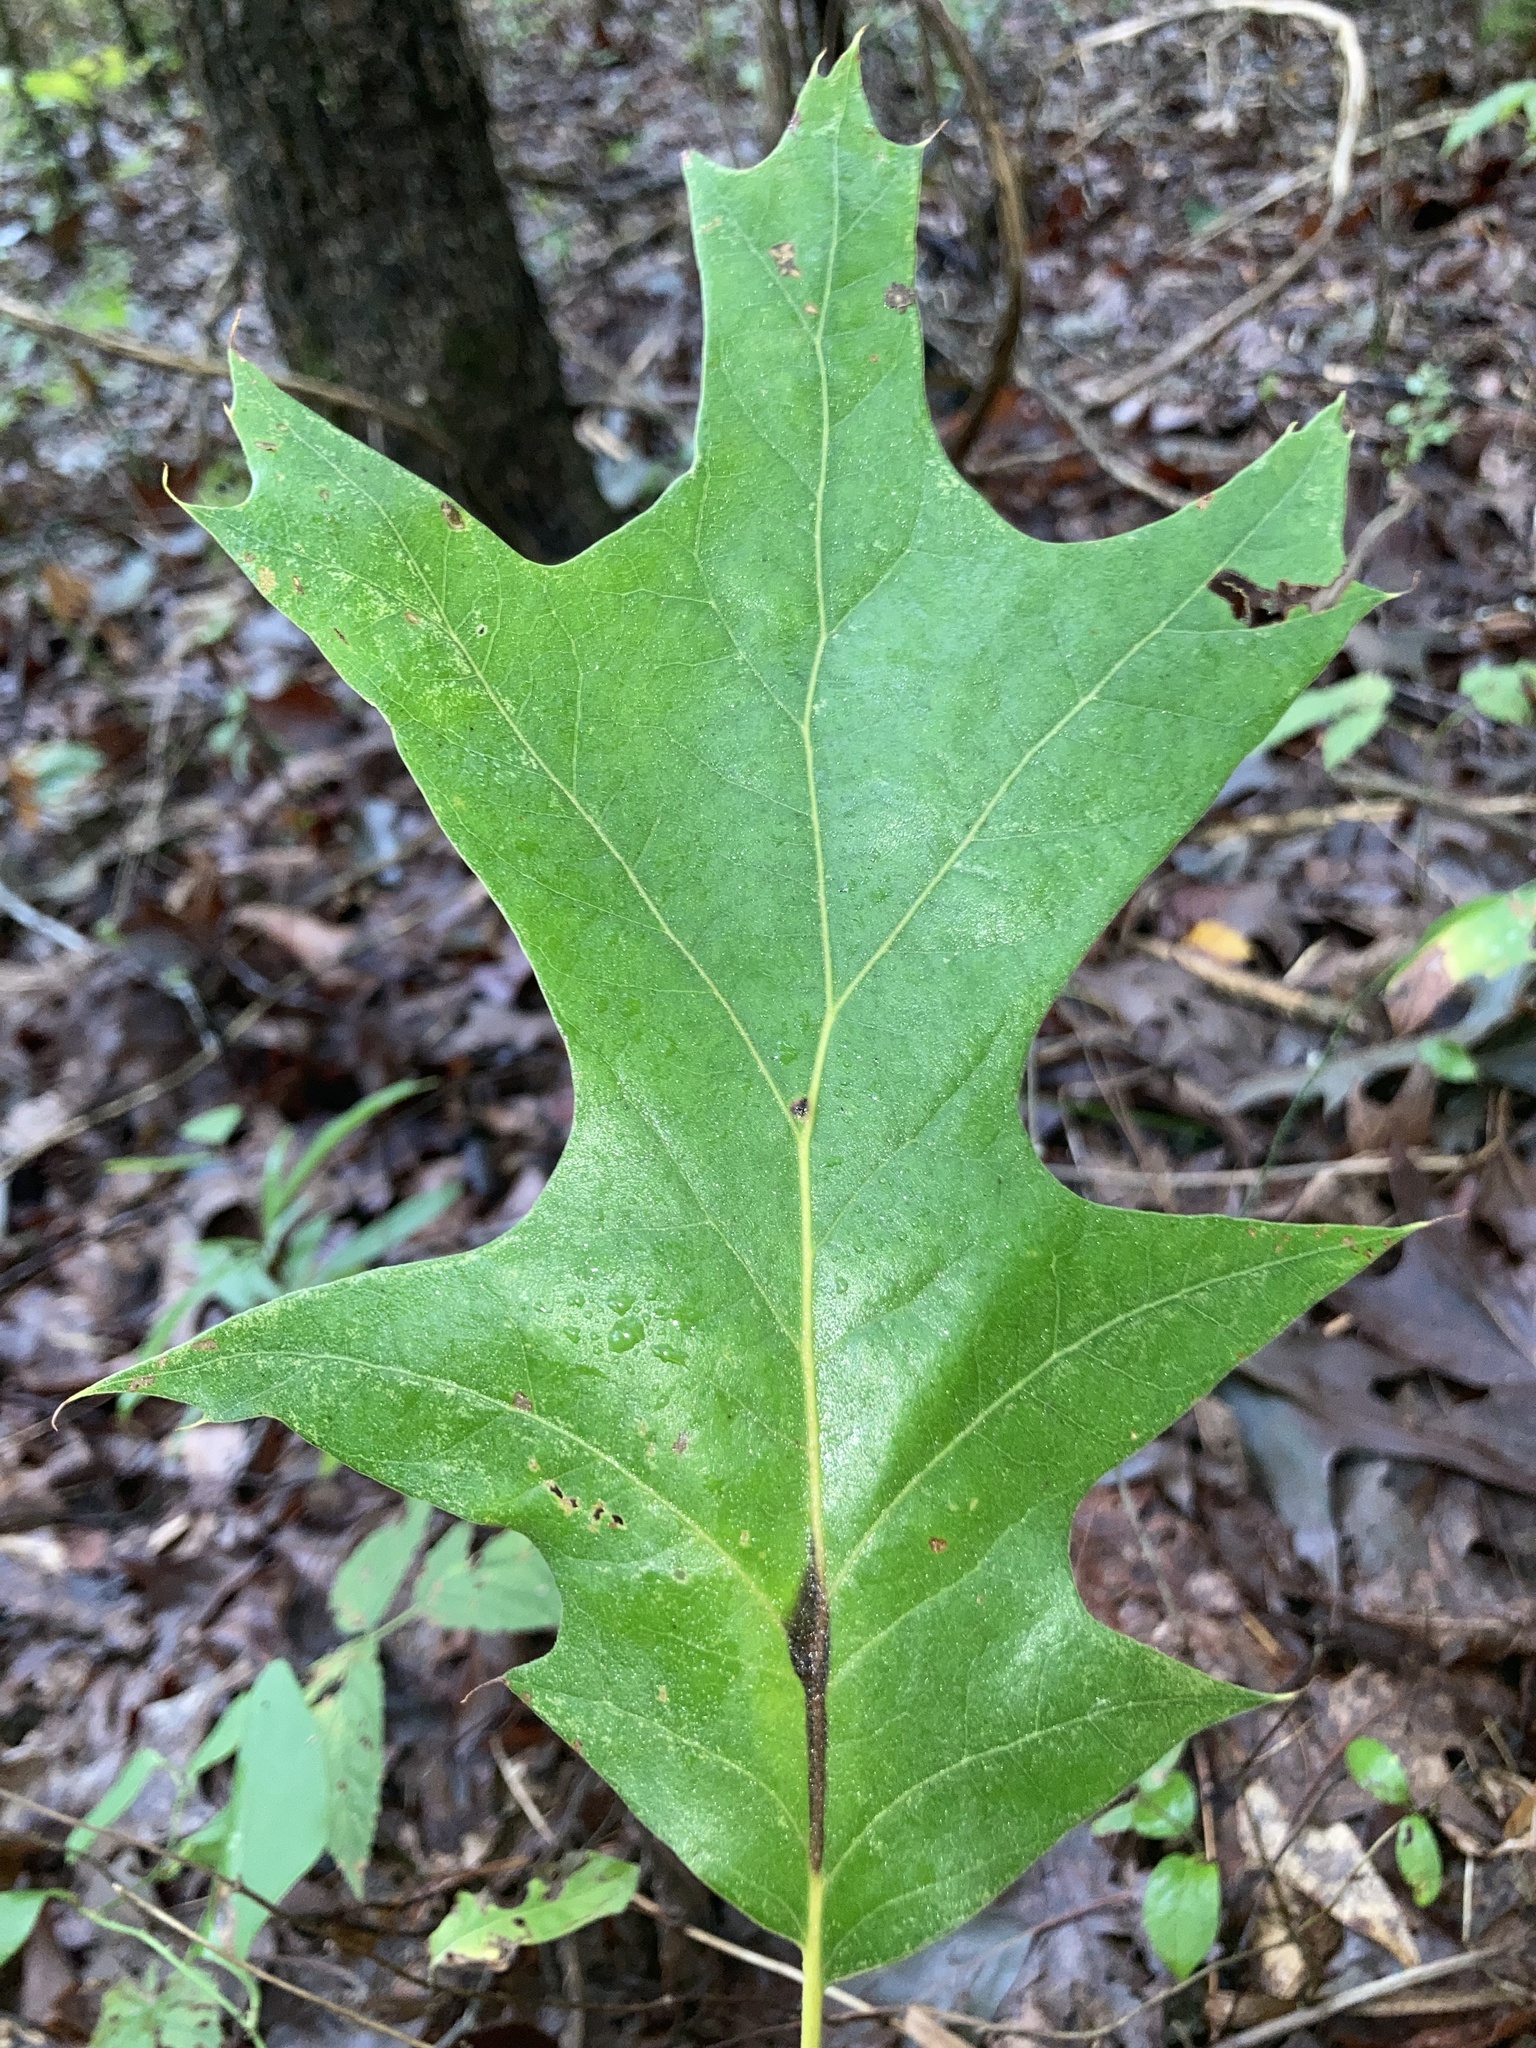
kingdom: Plantae
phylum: Tracheophyta
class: Magnoliopsida
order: Fagales
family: Fagaceae
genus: Quercus
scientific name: Quercus pagoda
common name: Cherrybark oak
